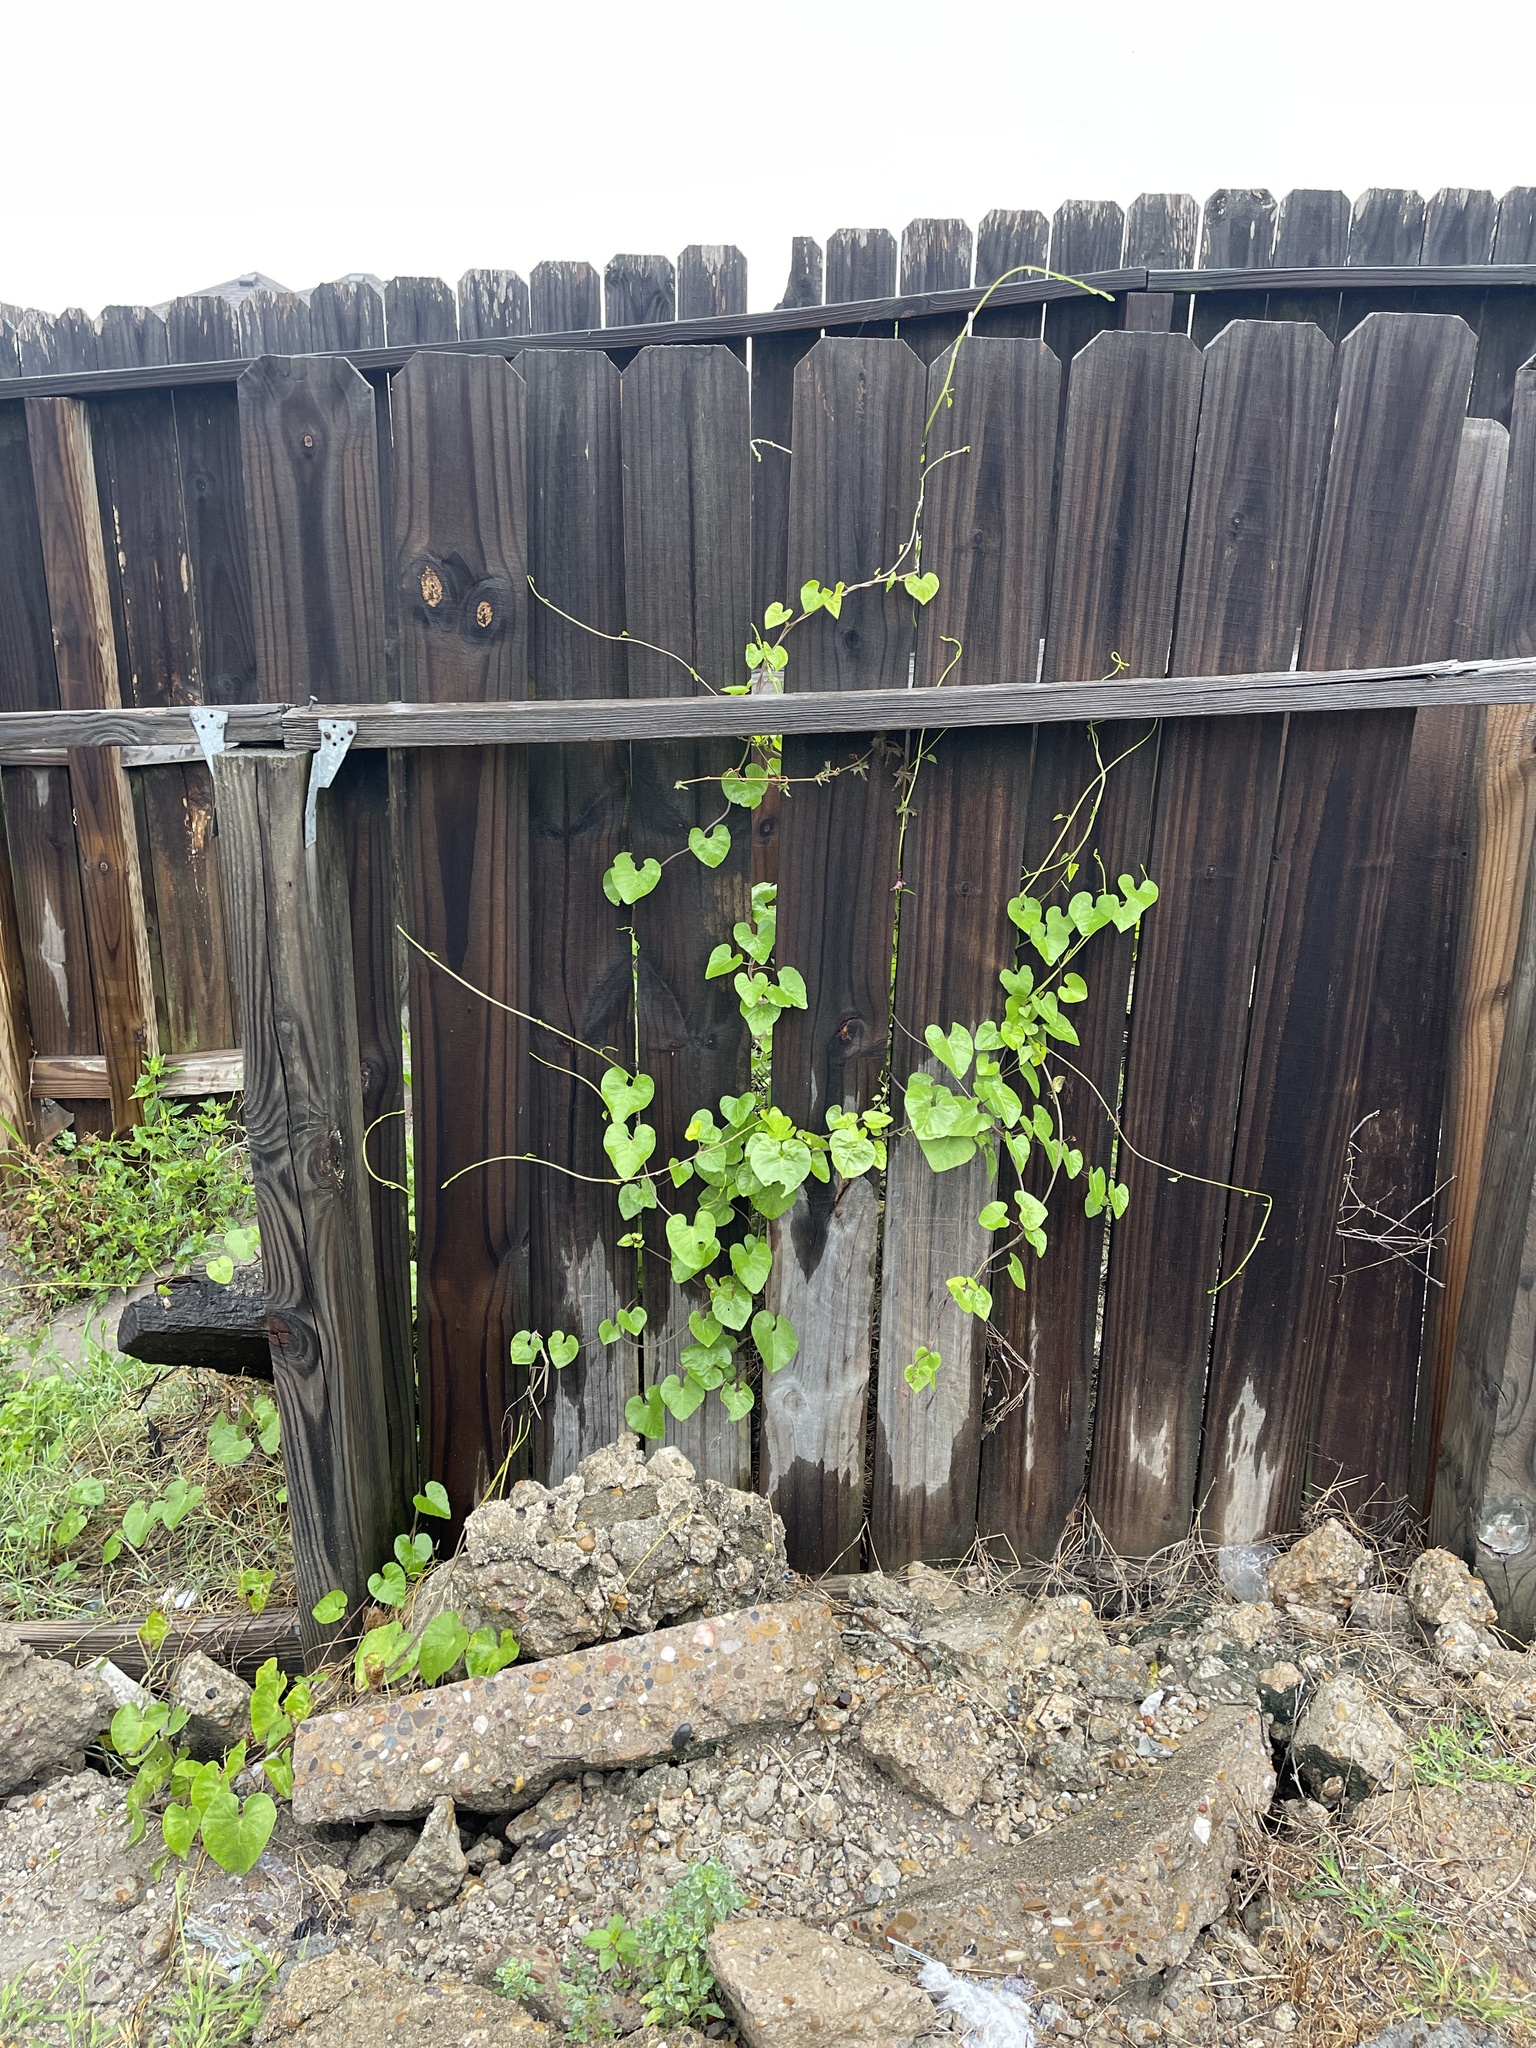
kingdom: Plantae
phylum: Tracheophyta
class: Magnoliopsida
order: Solanales
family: Convolvulaceae
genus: Ipomoea
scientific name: Ipomoea amnicola
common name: Redcenter morning-glory
